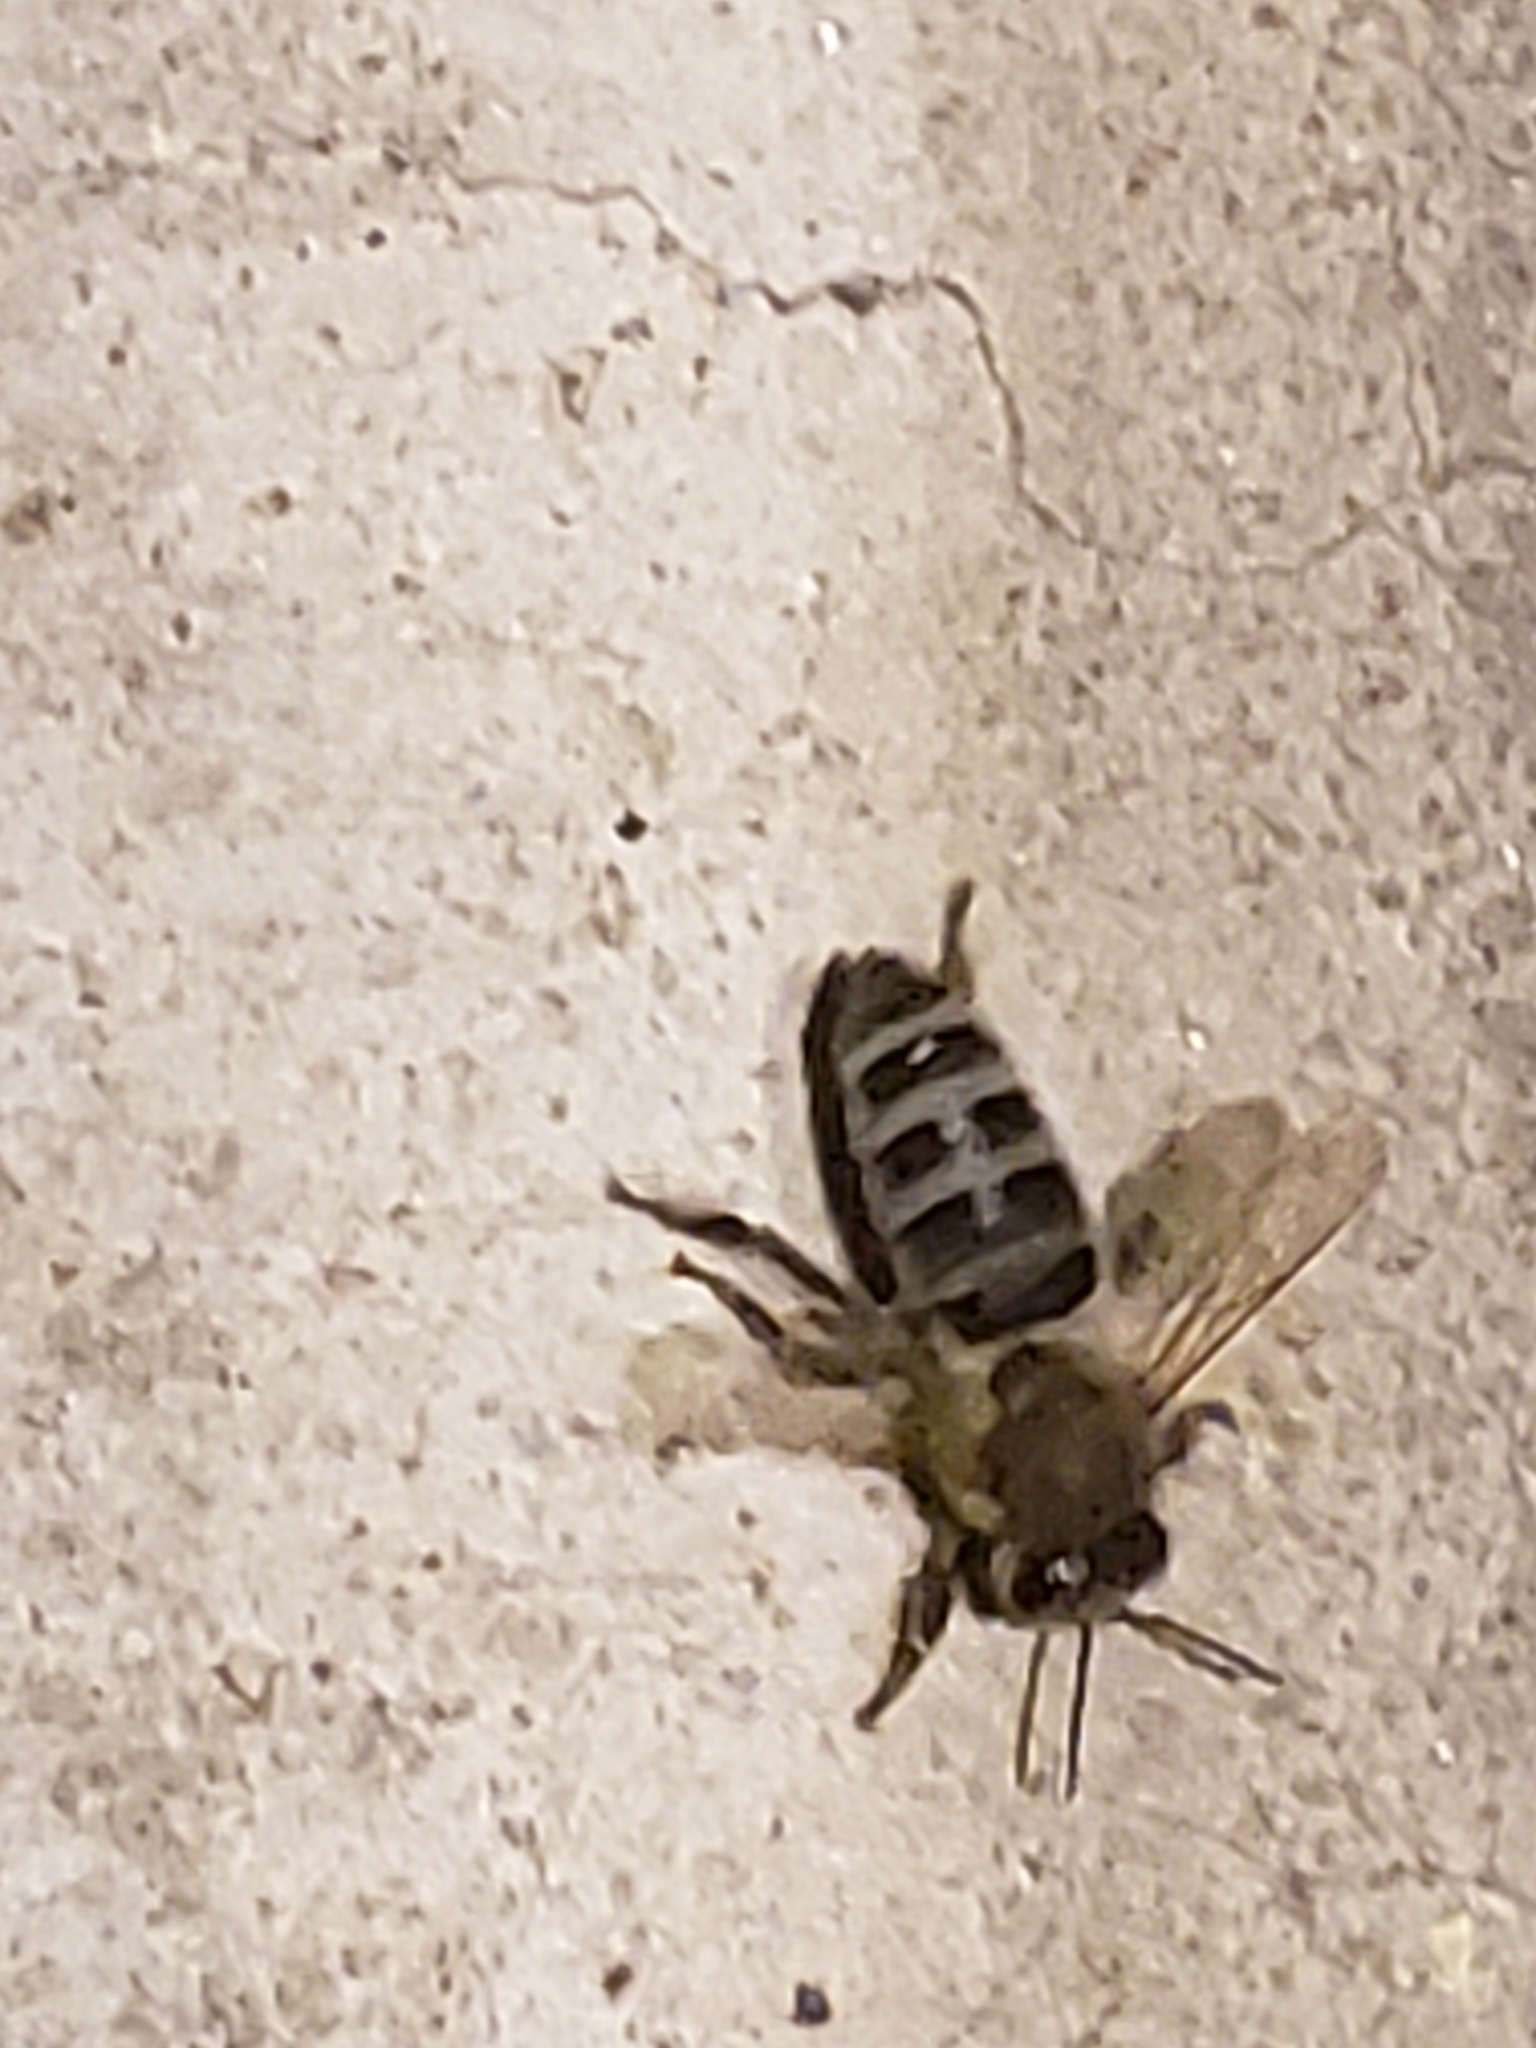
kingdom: Animalia
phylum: Arthropoda
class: Insecta
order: Hymenoptera
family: Apidae
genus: Apis
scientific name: Apis mellifera
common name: Honey bee
